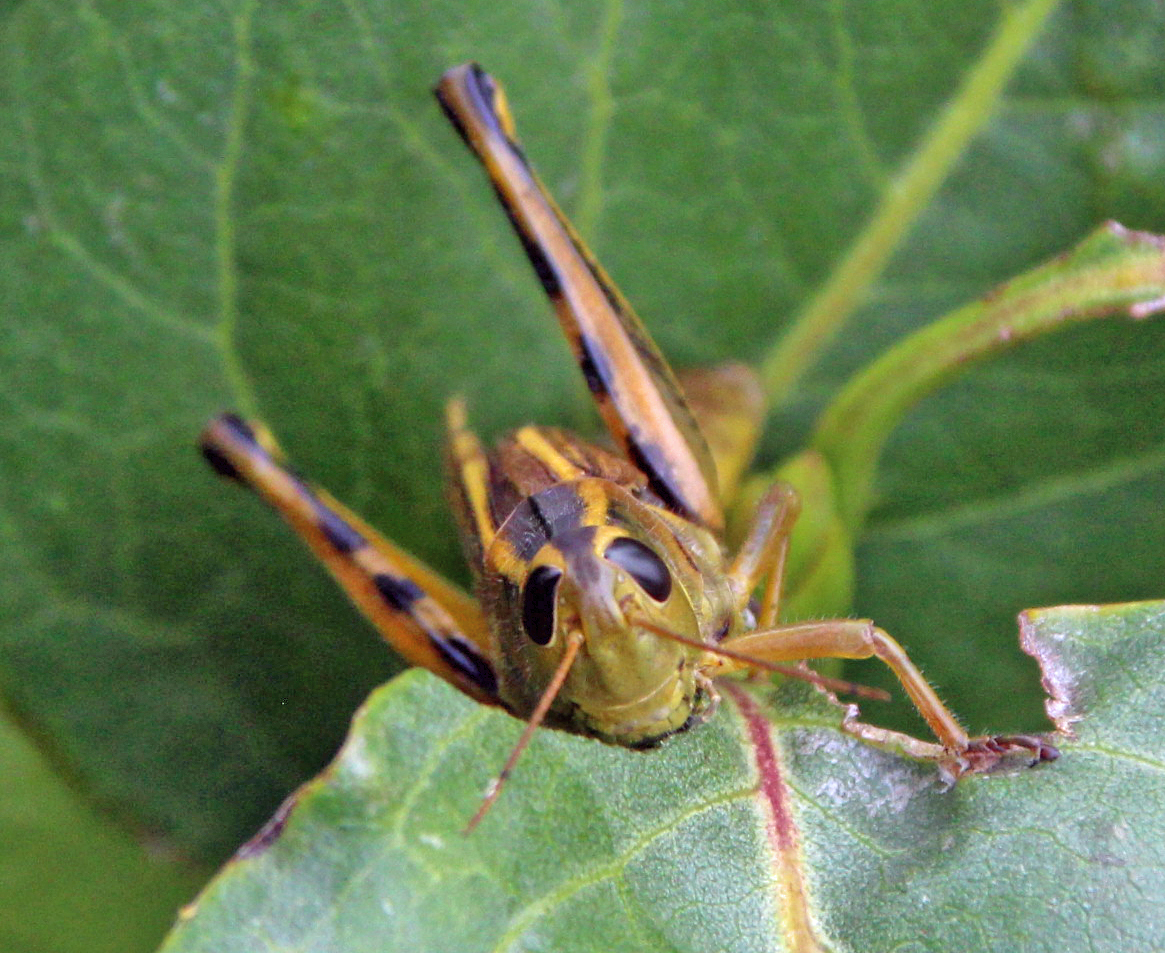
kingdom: Animalia
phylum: Arthropoda
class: Insecta
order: Orthoptera
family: Acrididae
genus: Melanoplus
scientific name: Melanoplus bivittatus
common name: Two-striped grasshopper
